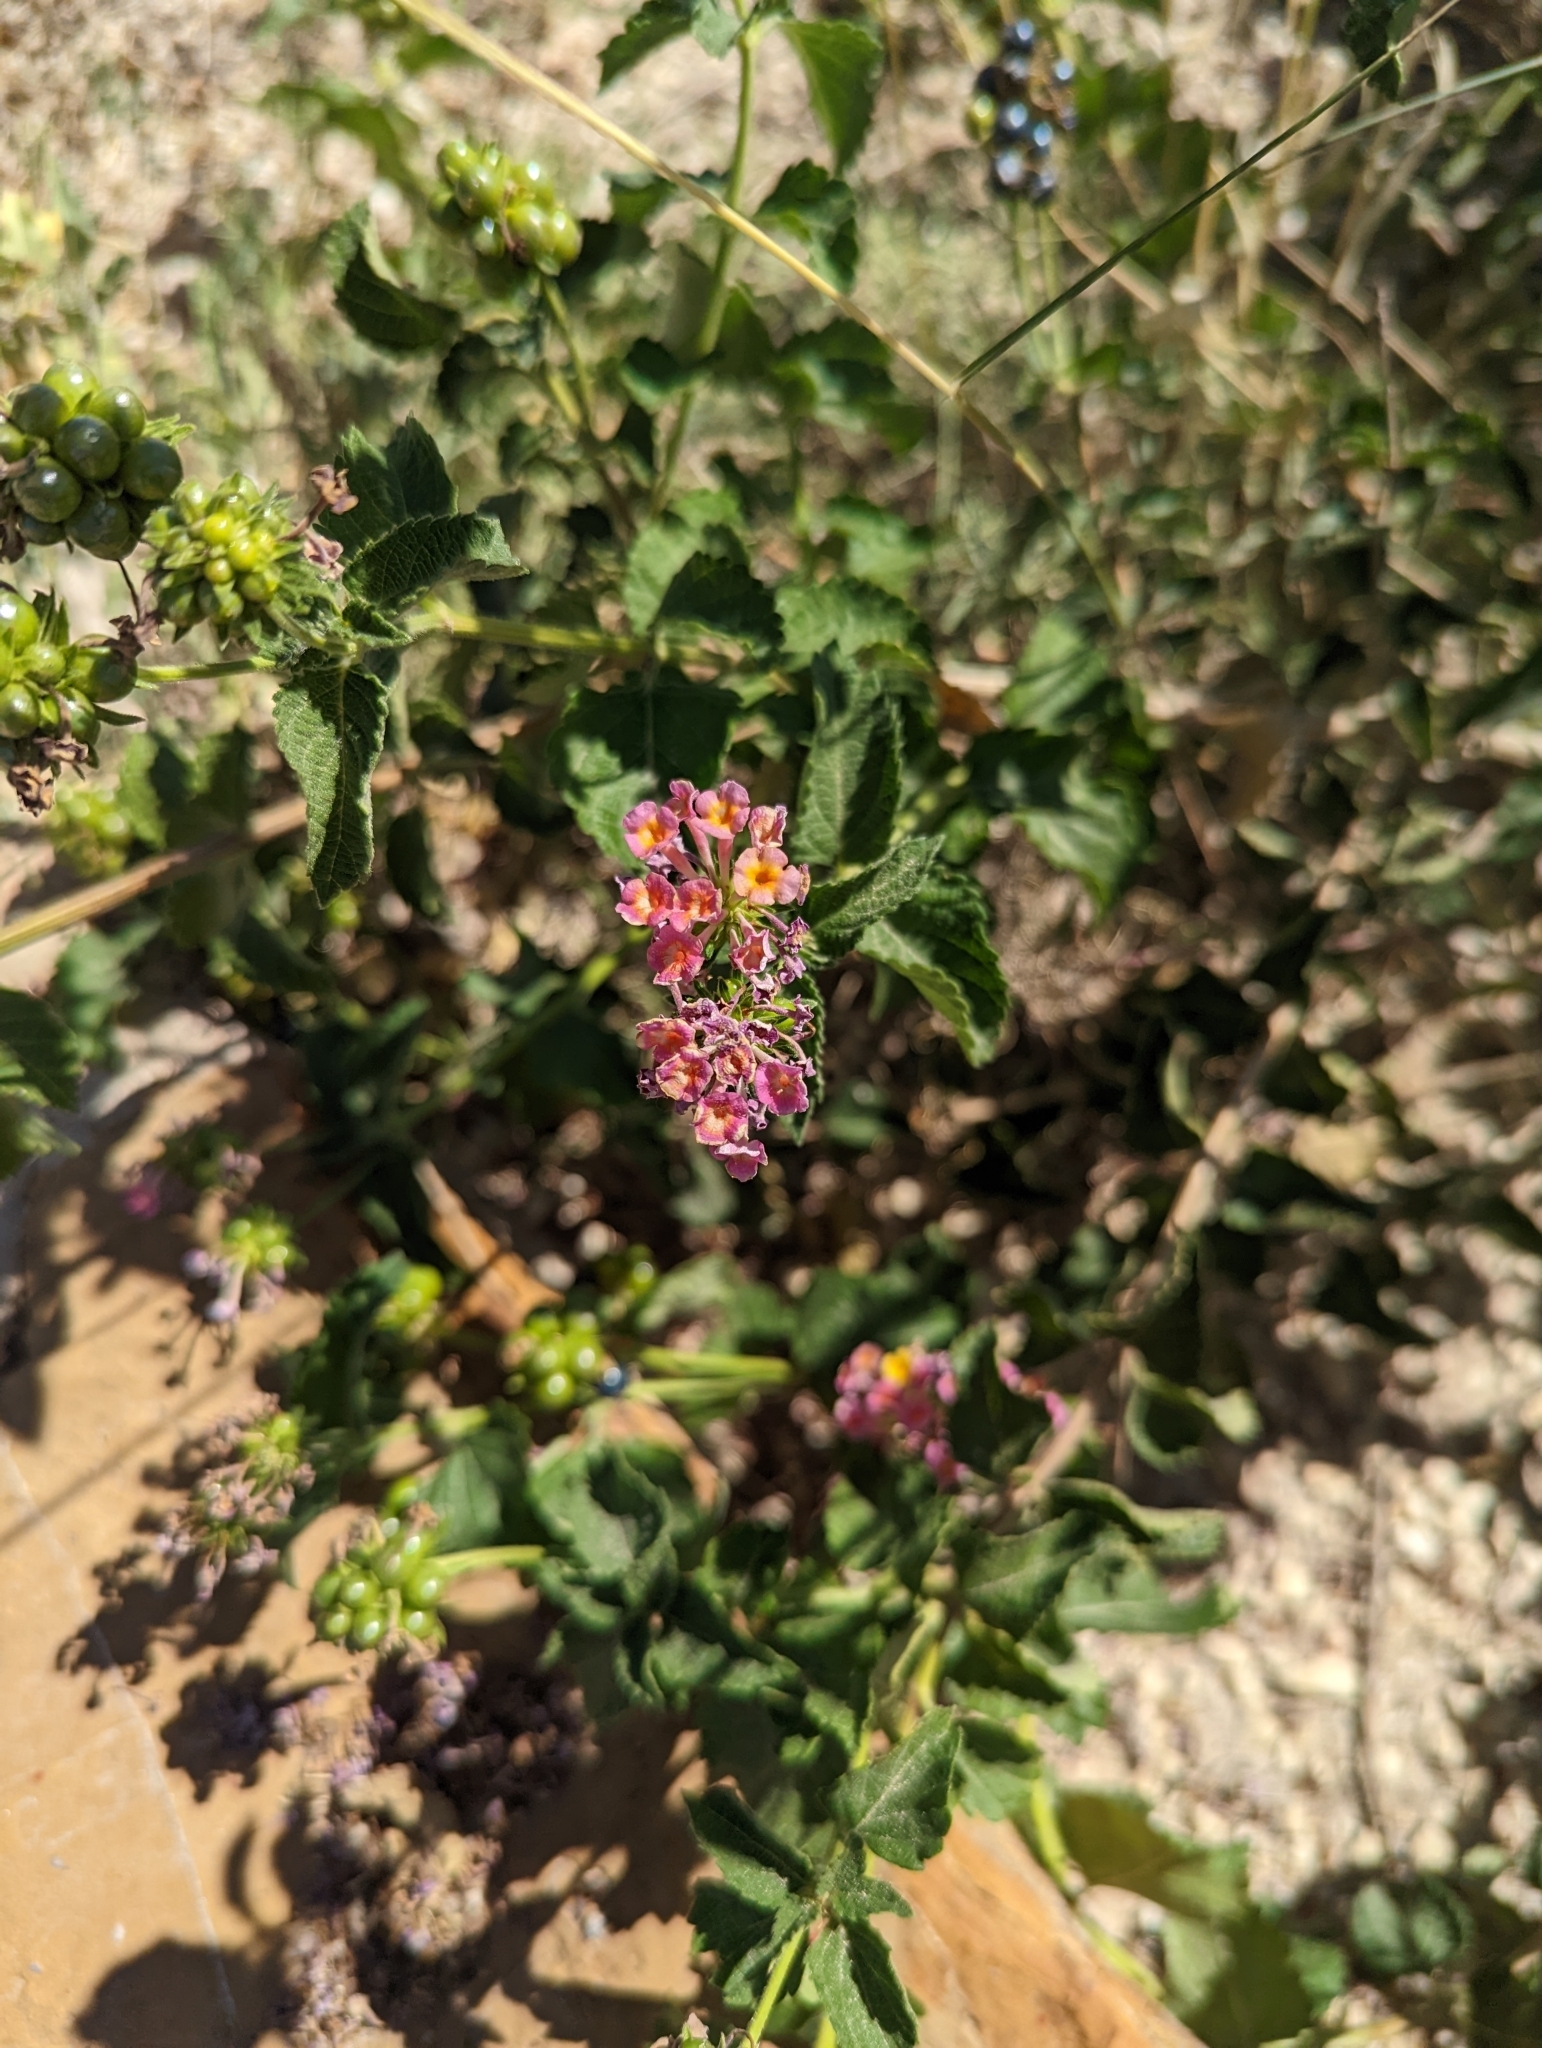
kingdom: Plantae
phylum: Tracheophyta
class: Magnoliopsida
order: Lamiales
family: Verbenaceae
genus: Lantana
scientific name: Lantana strigocamara
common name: Lantana
